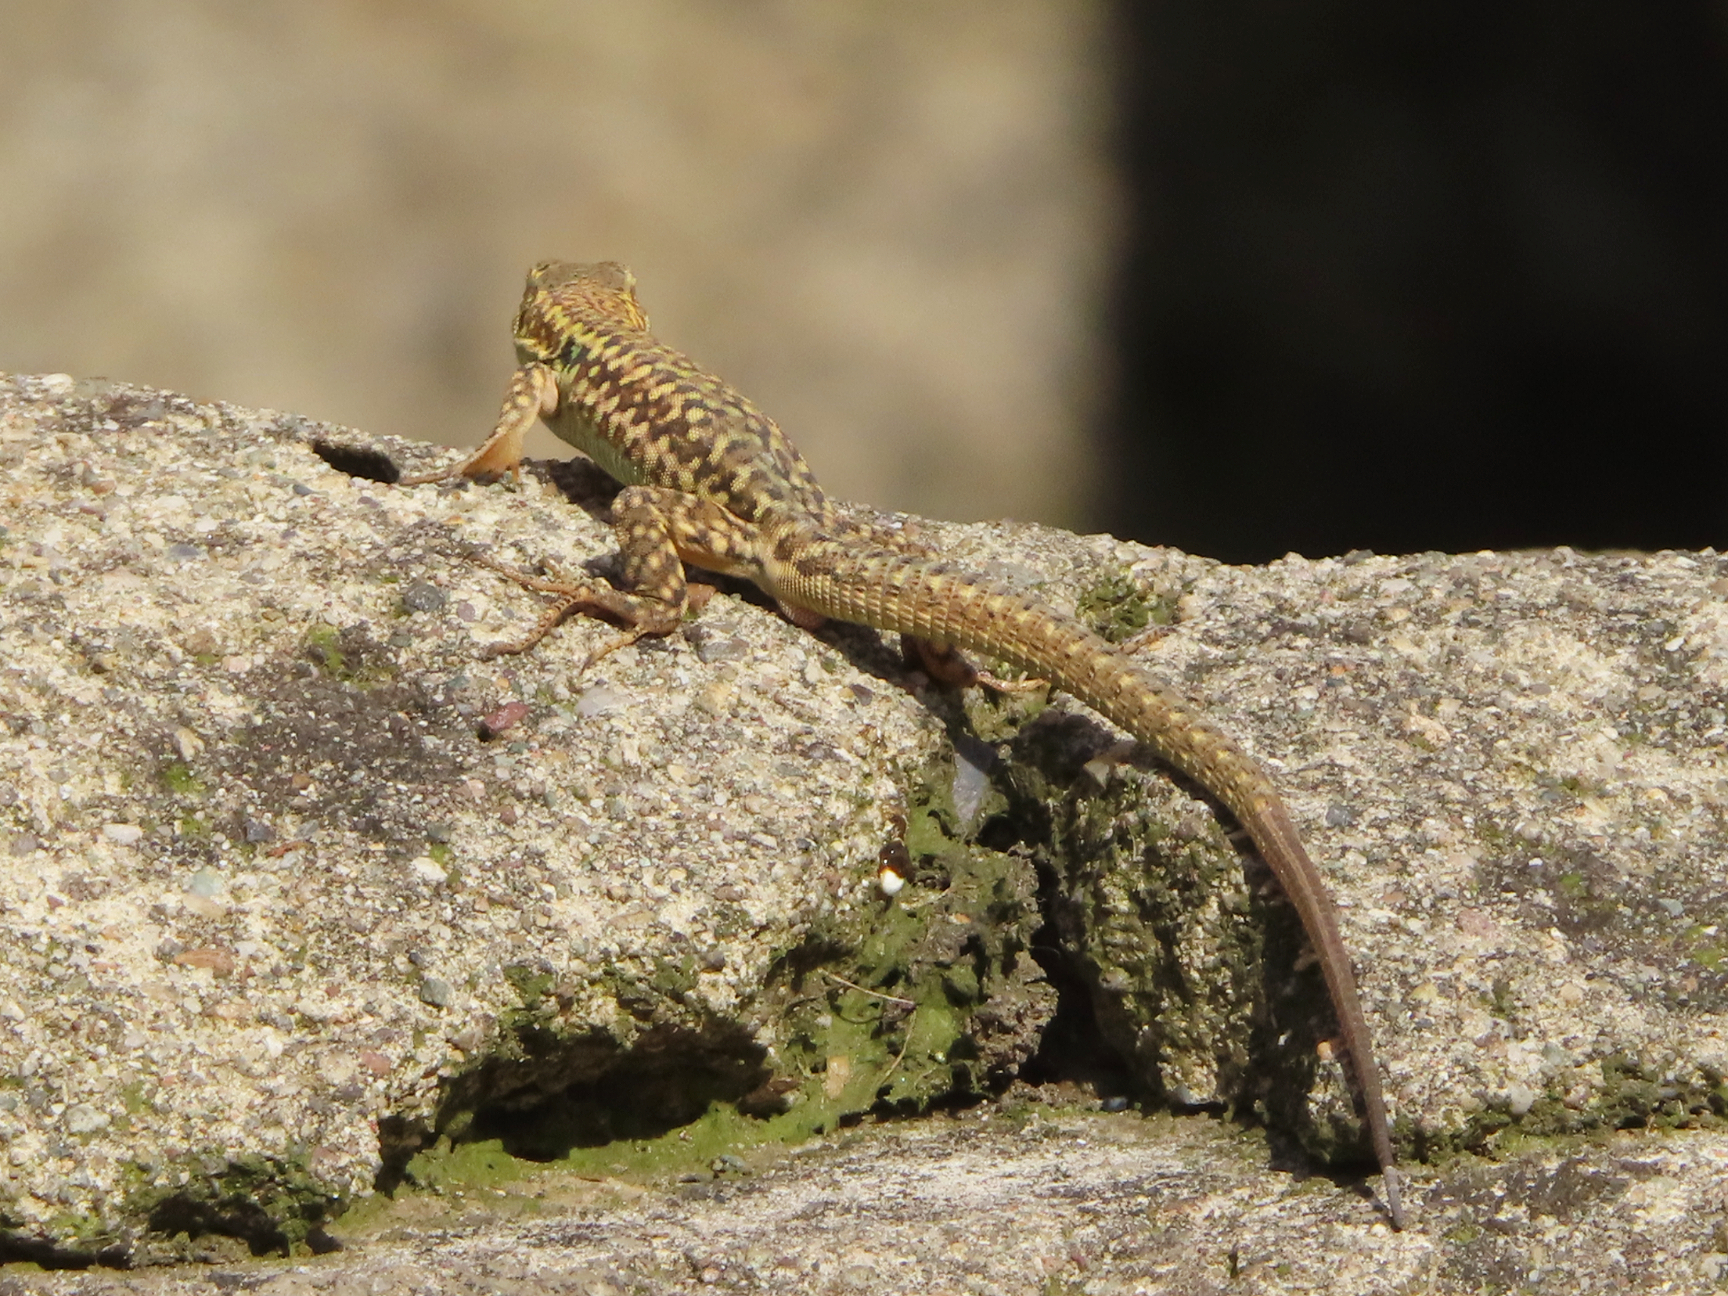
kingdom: Animalia
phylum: Chordata
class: Squamata
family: Lacertidae
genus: Podarcis
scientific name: Podarcis siculus
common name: Italian wall lizard
